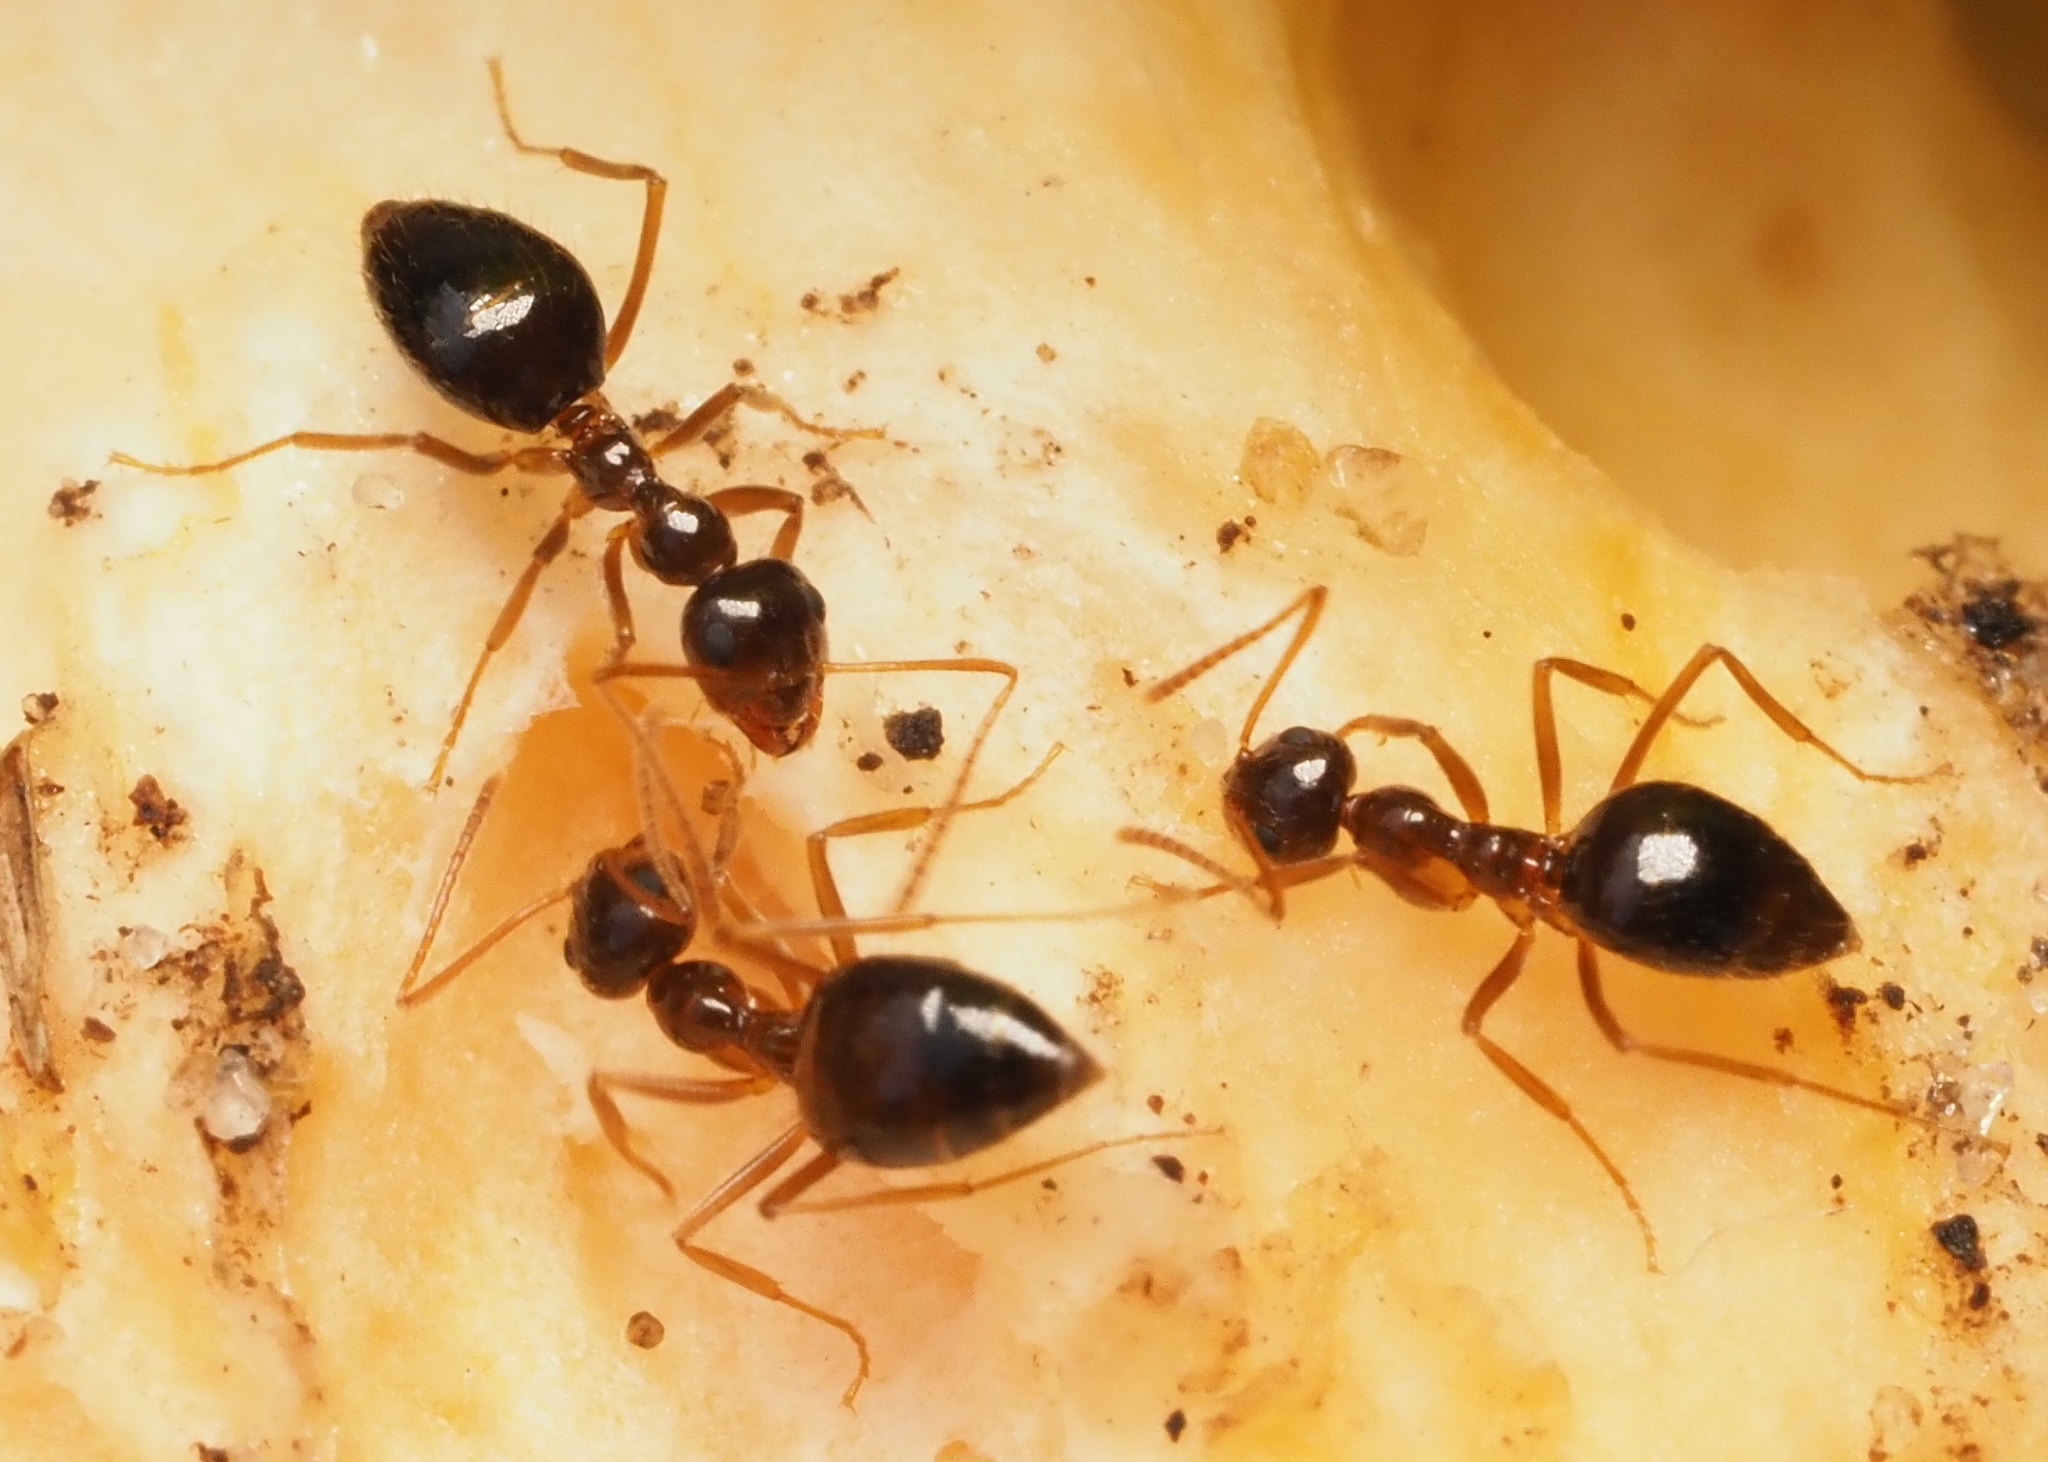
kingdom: Animalia
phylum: Arthropoda
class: Insecta
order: Hymenoptera
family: Formicidae
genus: Prenolepis
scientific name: Prenolepis imparis
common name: Small honey ant
